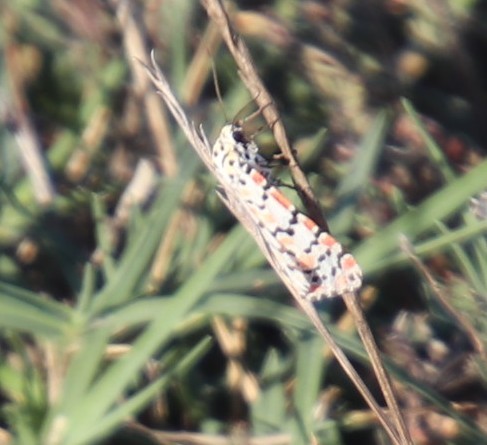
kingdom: Animalia
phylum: Arthropoda
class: Insecta
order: Lepidoptera
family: Erebidae
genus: Utetheisa
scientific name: Utetheisa pulchella
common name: Crimson speckled
